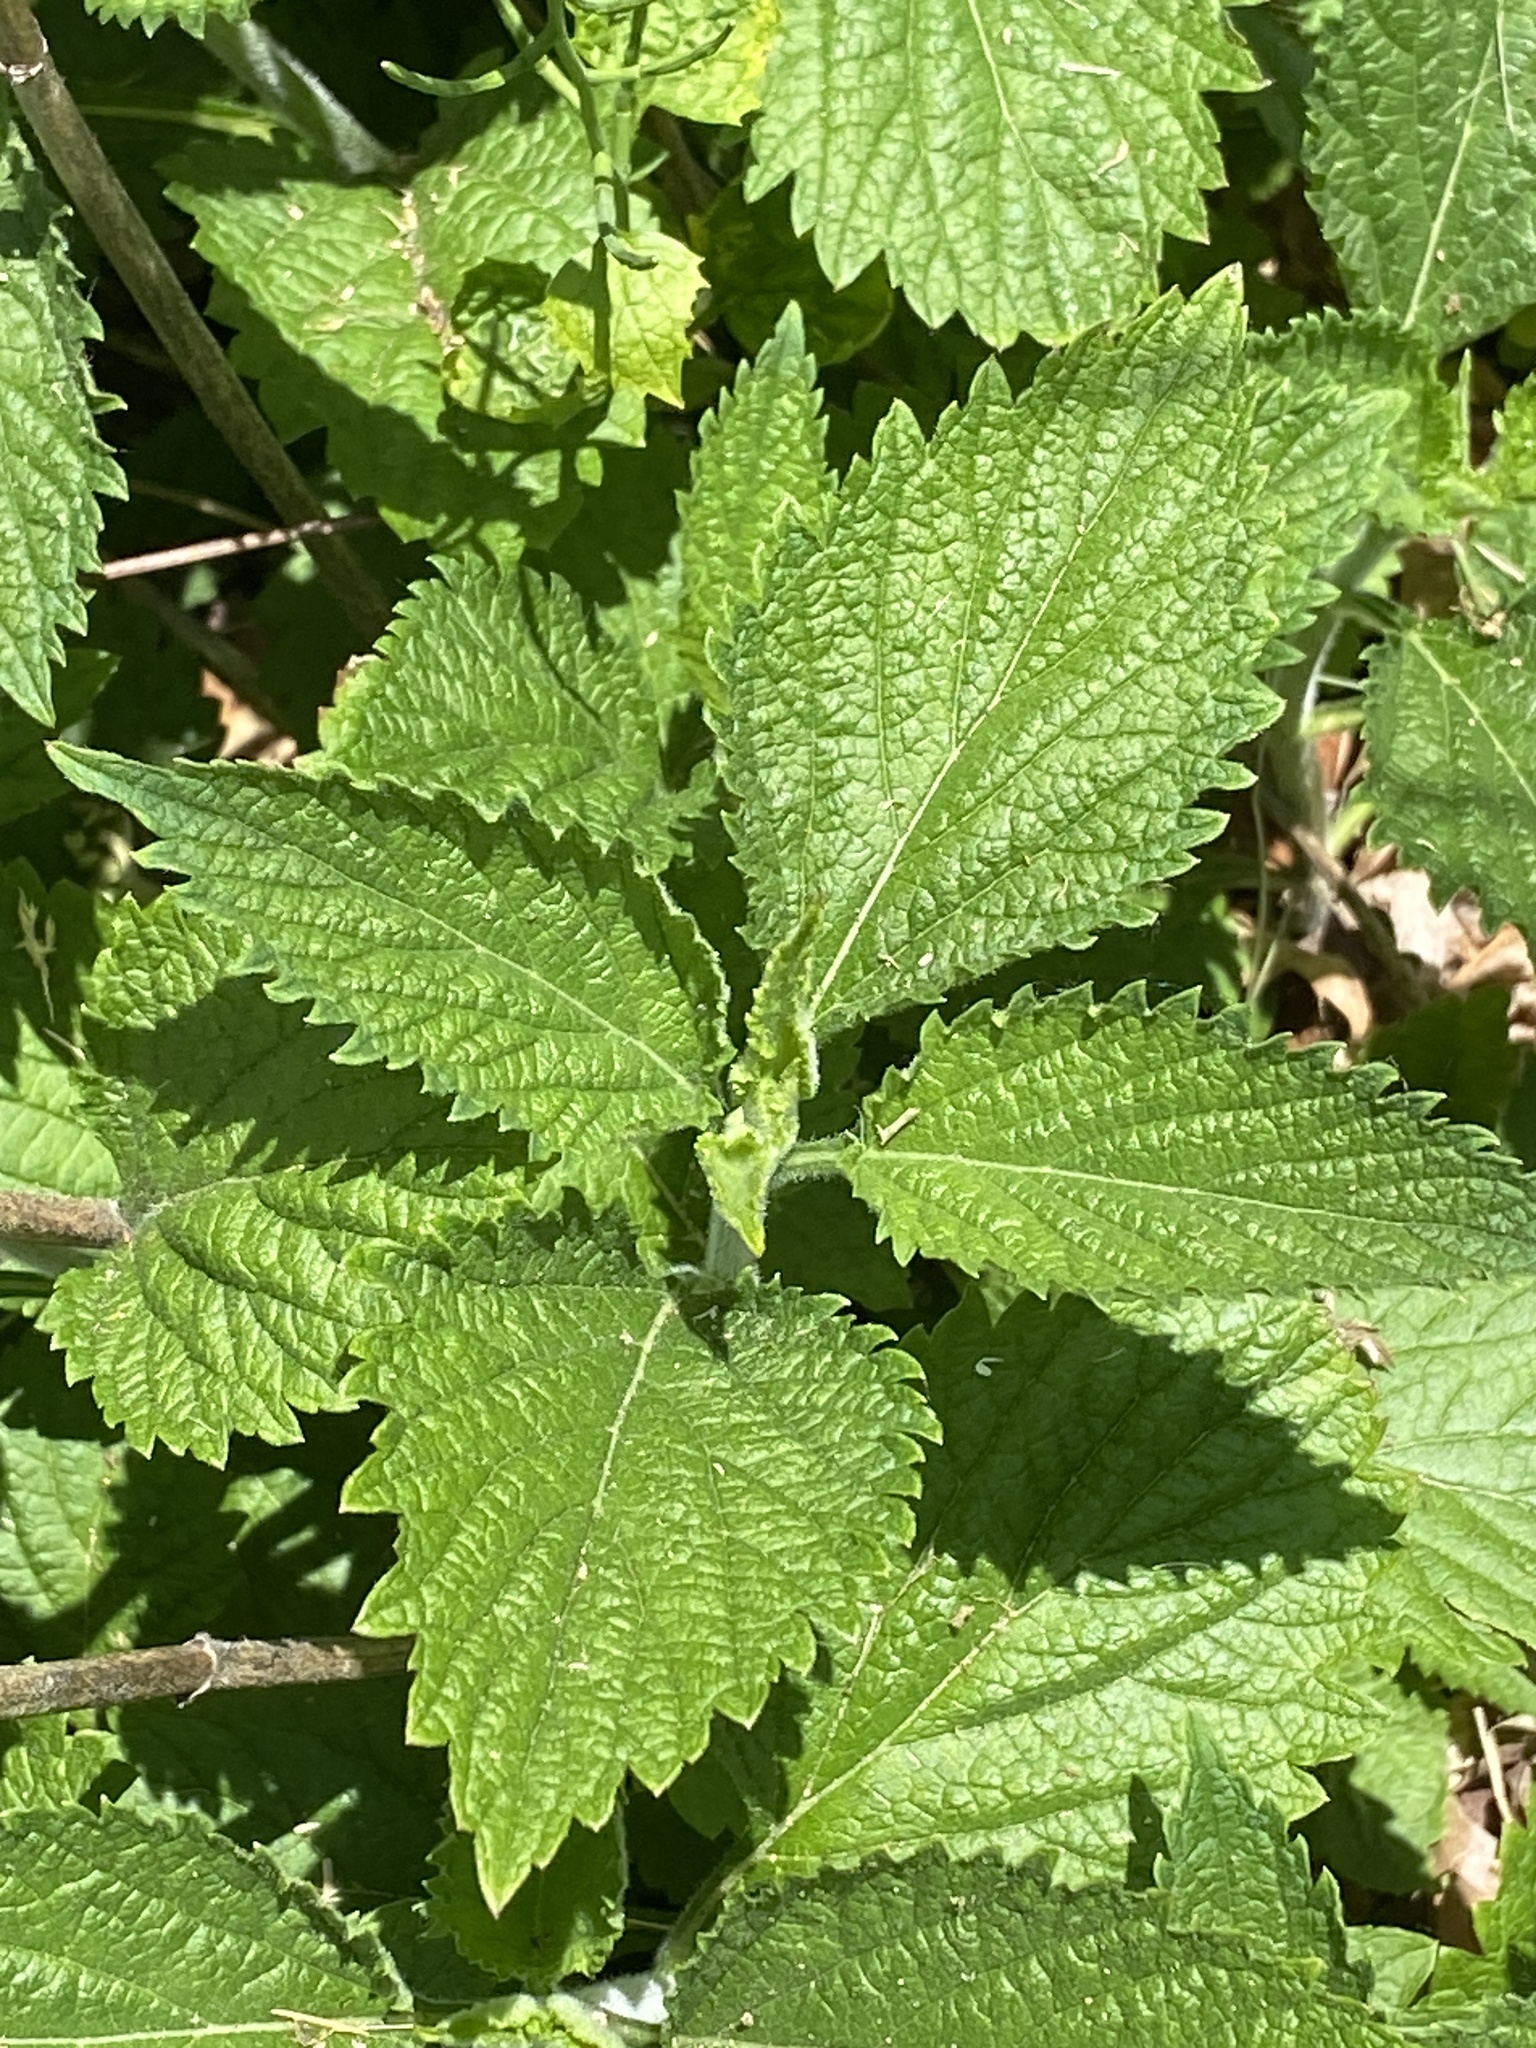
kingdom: Plantae
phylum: Tracheophyta
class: Magnoliopsida
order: Lamiales
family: Verbenaceae
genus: Verbena
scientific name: Verbena urticifolia
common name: Nettle-leaved vervain
